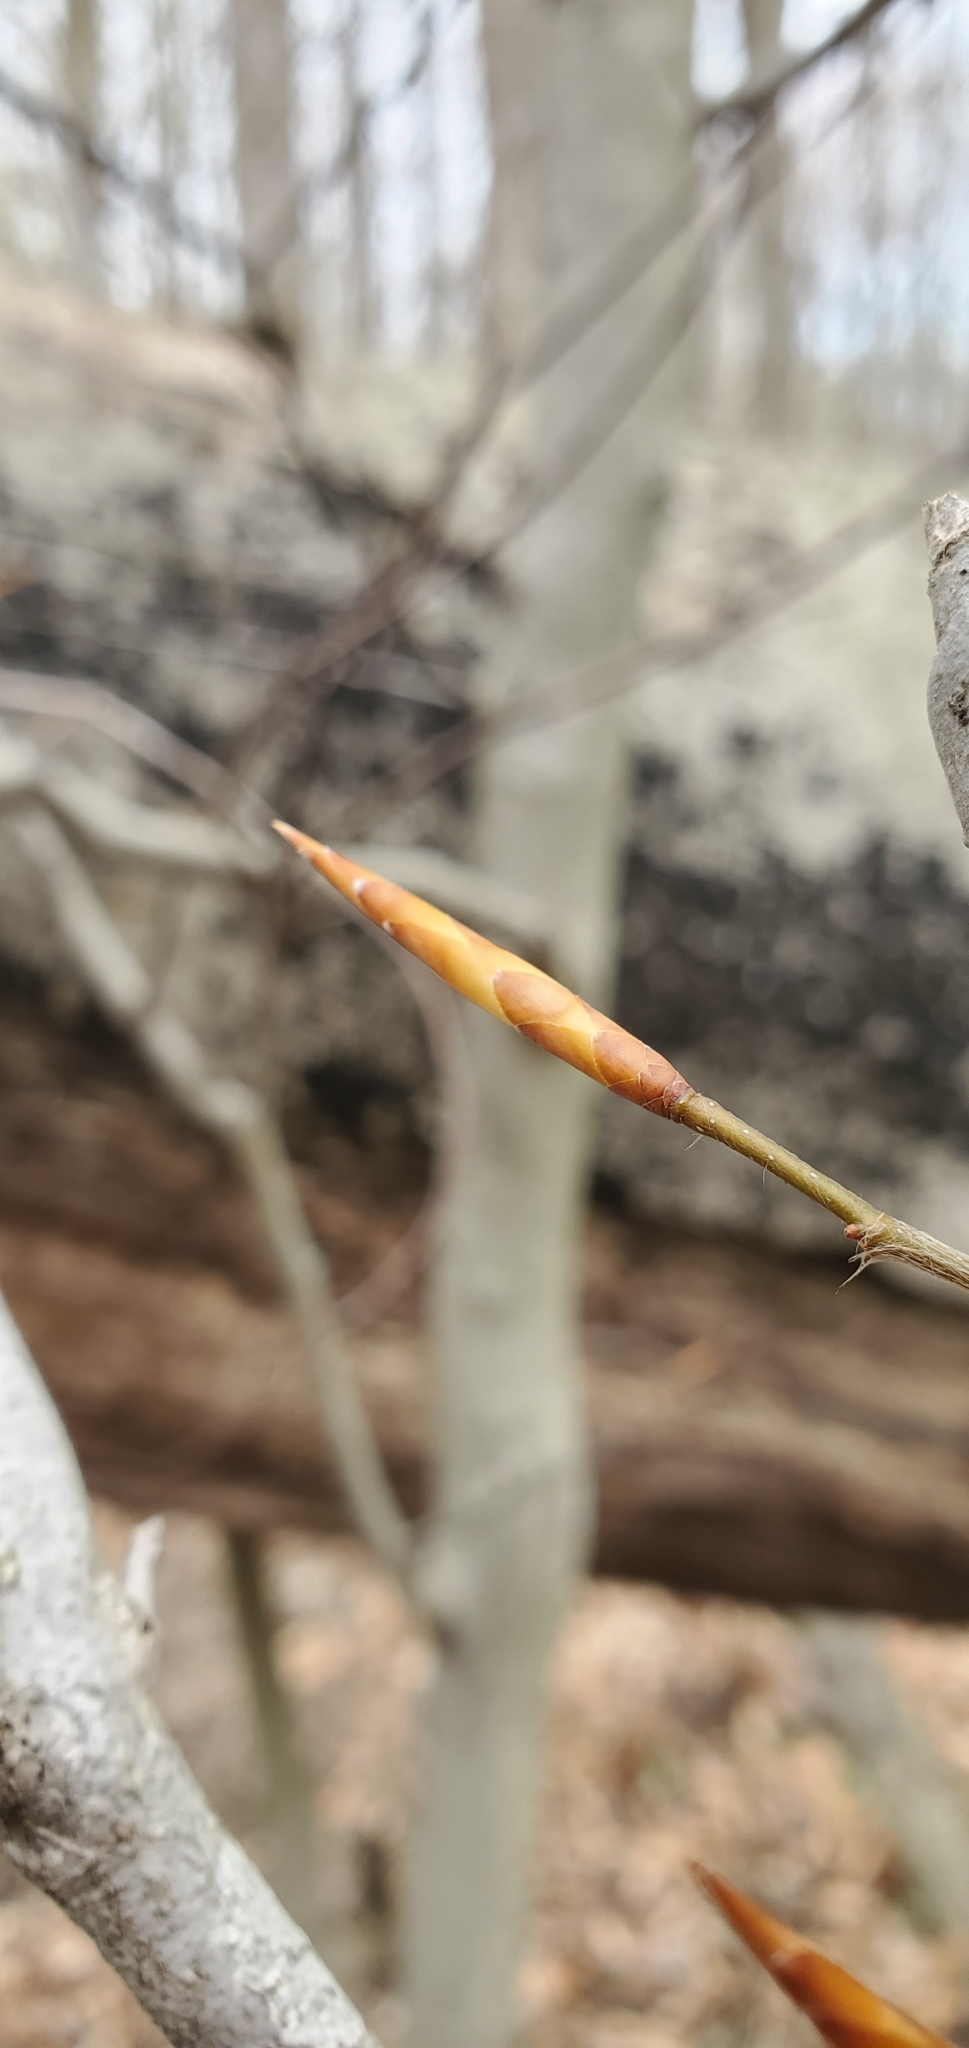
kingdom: Plantae
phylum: Tracheophyta
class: Magnoliopsida
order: Fagales
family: Fagaceae
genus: Fagus
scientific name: Fagus grandifolia
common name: American beech
